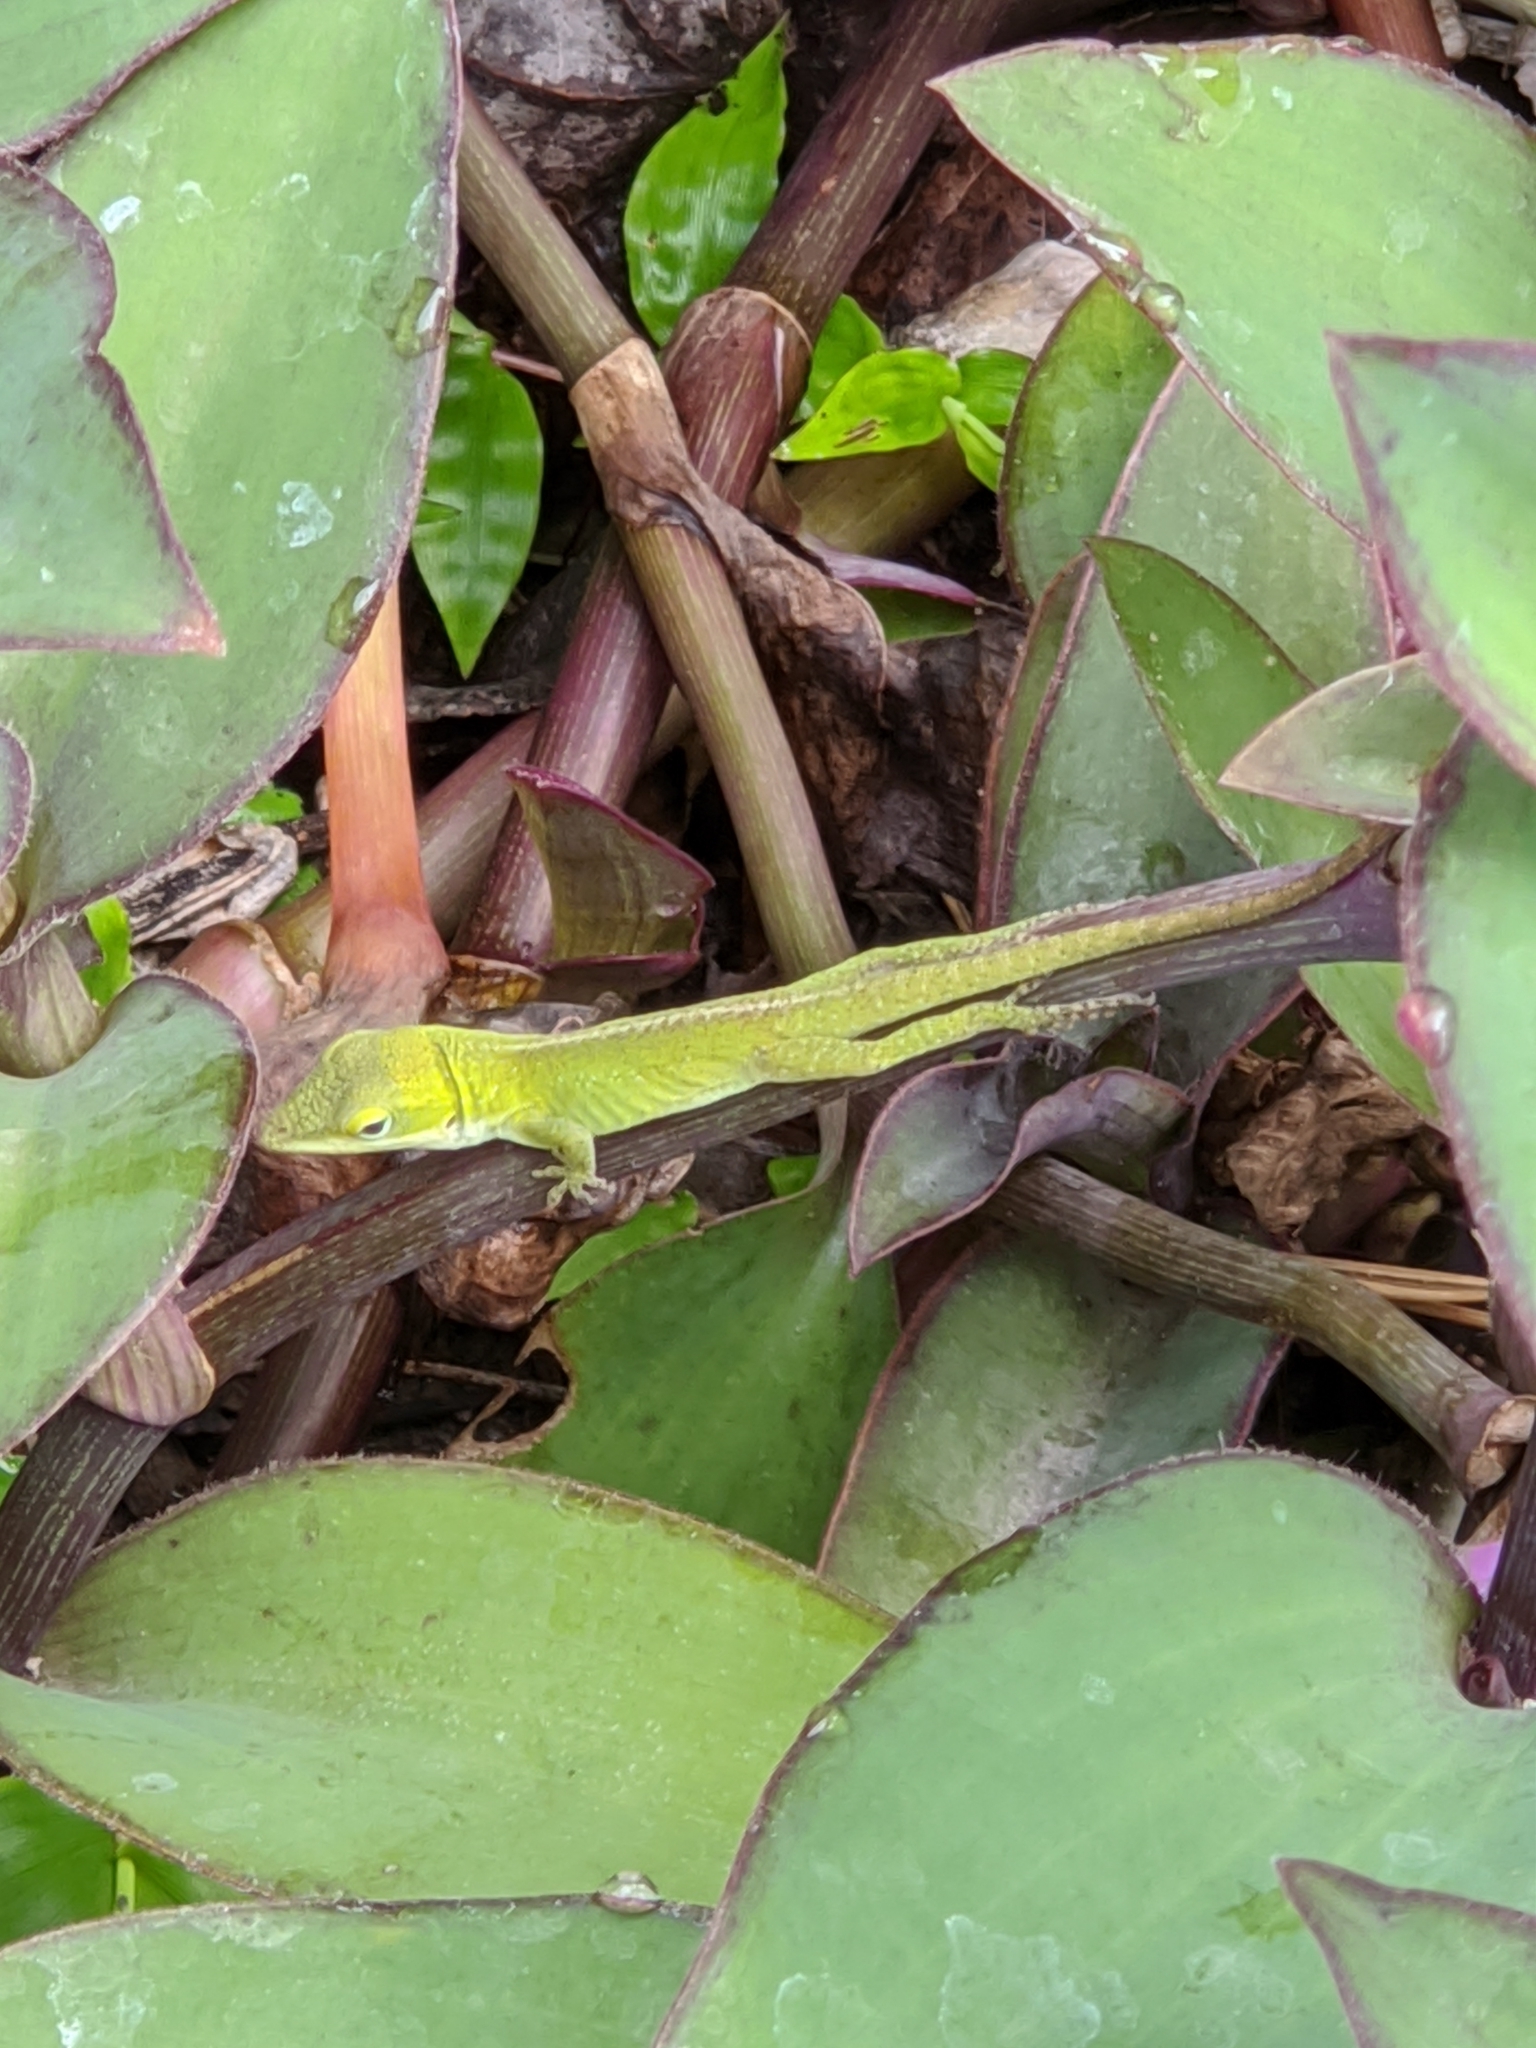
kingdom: Animalia
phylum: Chordata
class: Squamata
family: Dactyloidae
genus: Anolis
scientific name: Anolis carolinensis
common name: Green anole
